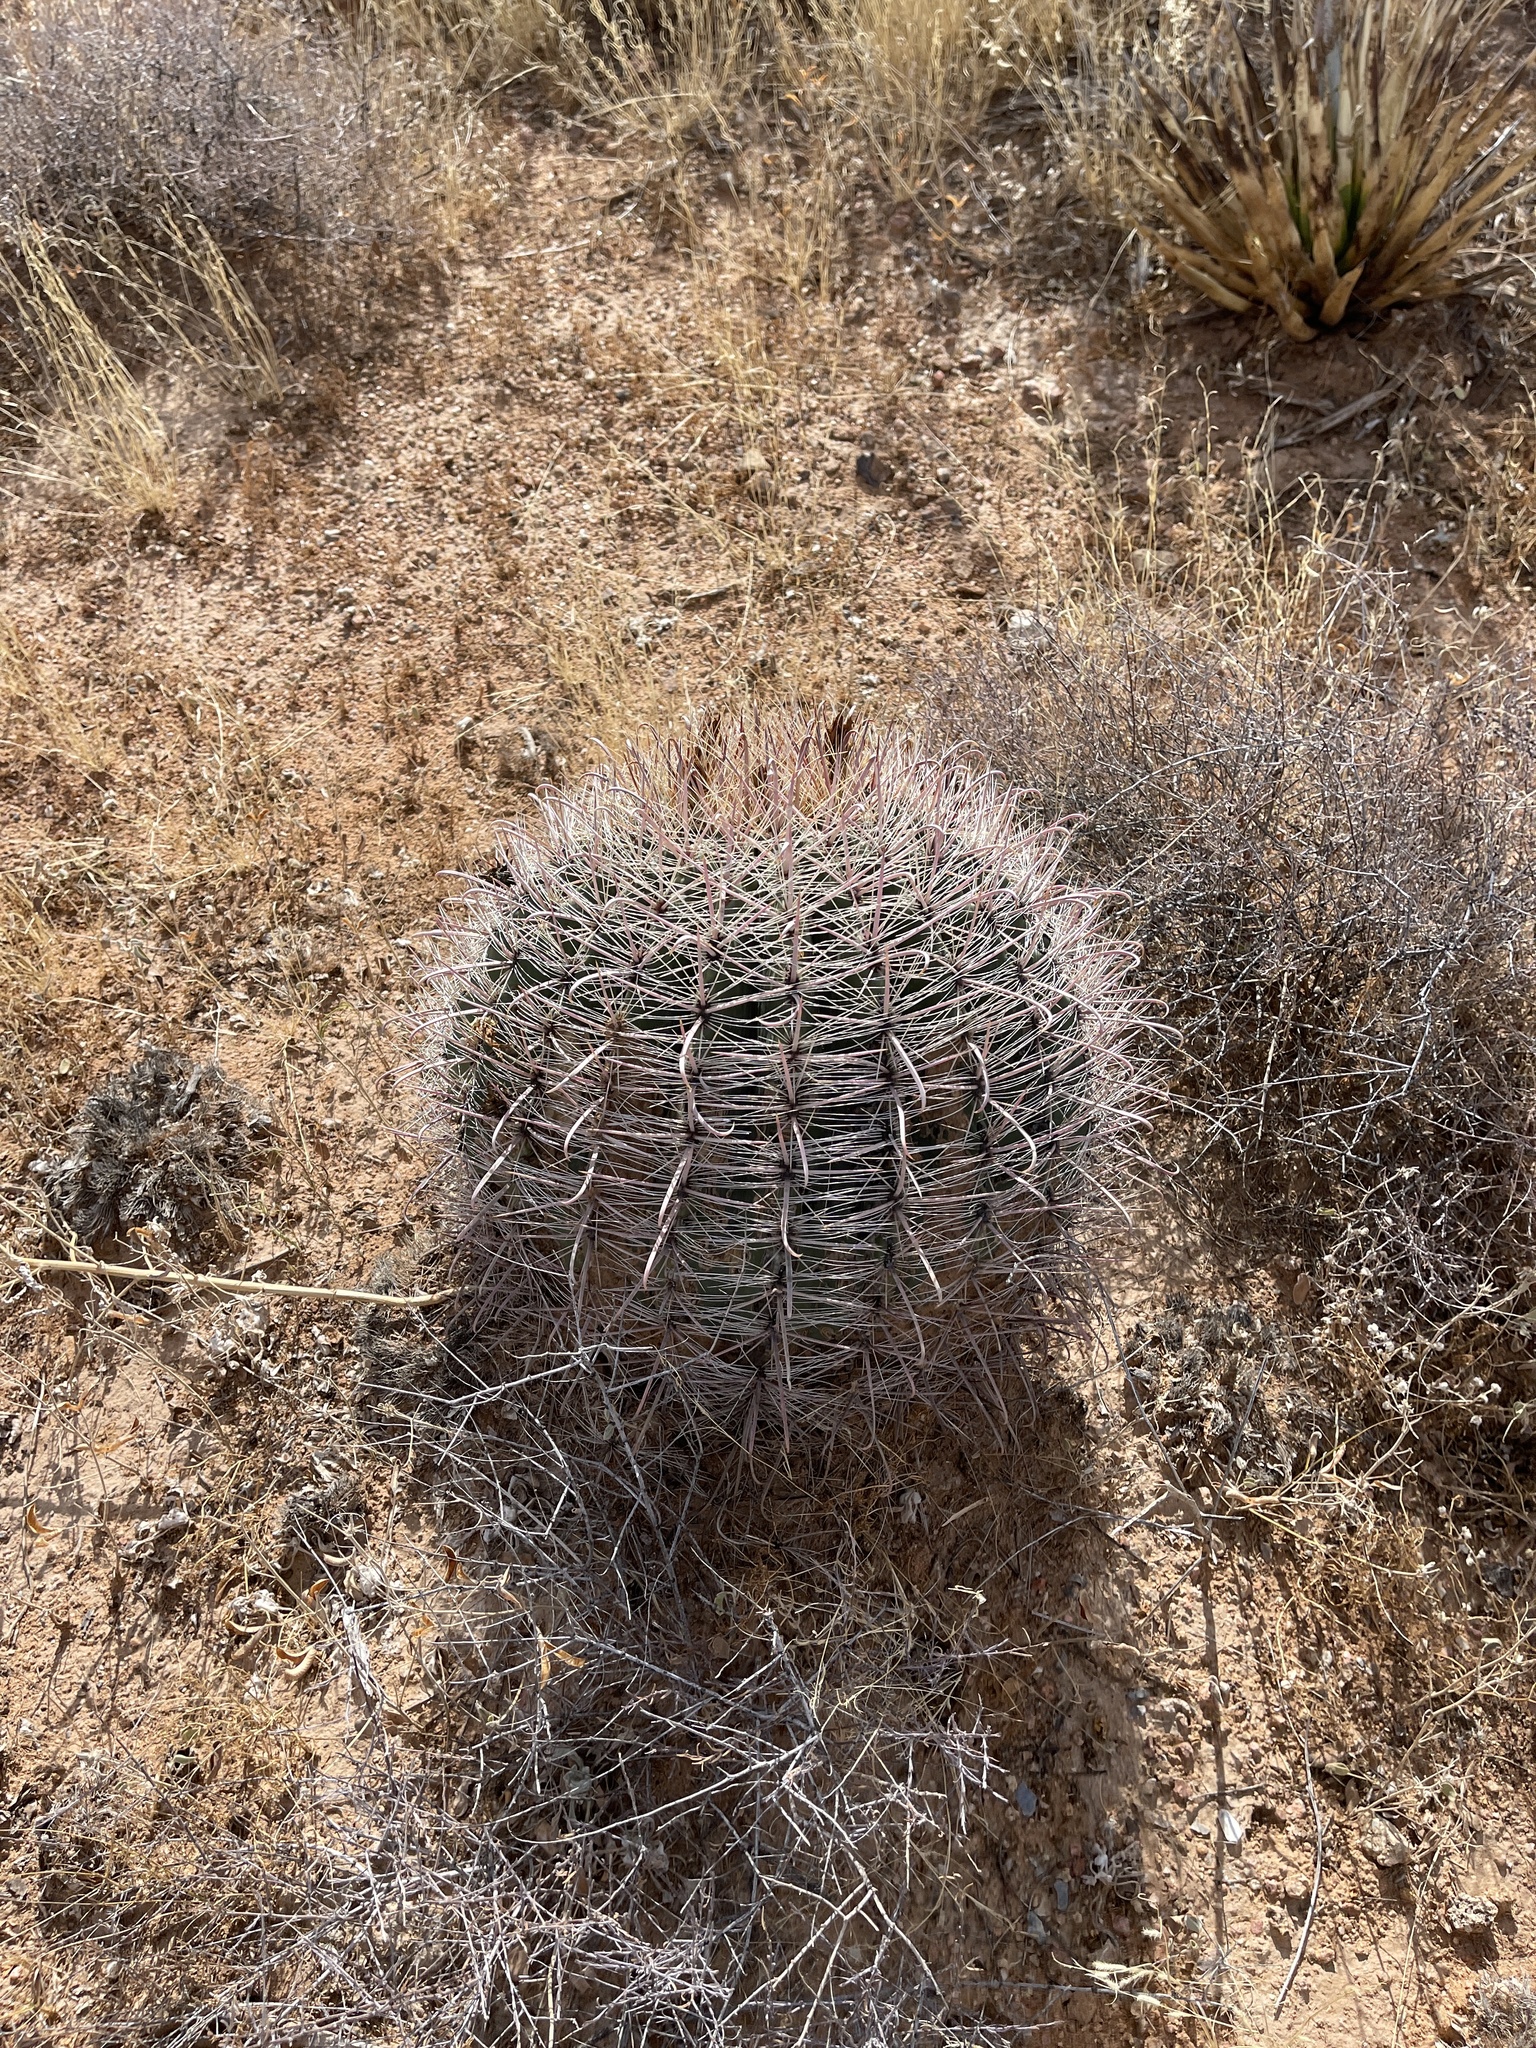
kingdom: Plantae
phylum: Tracheophyta
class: Magnoliopsida
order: Caryophyllales
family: Cactaceae
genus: Ferocactus
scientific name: Ferocactus wislizeni
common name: Candy barrel cactus
